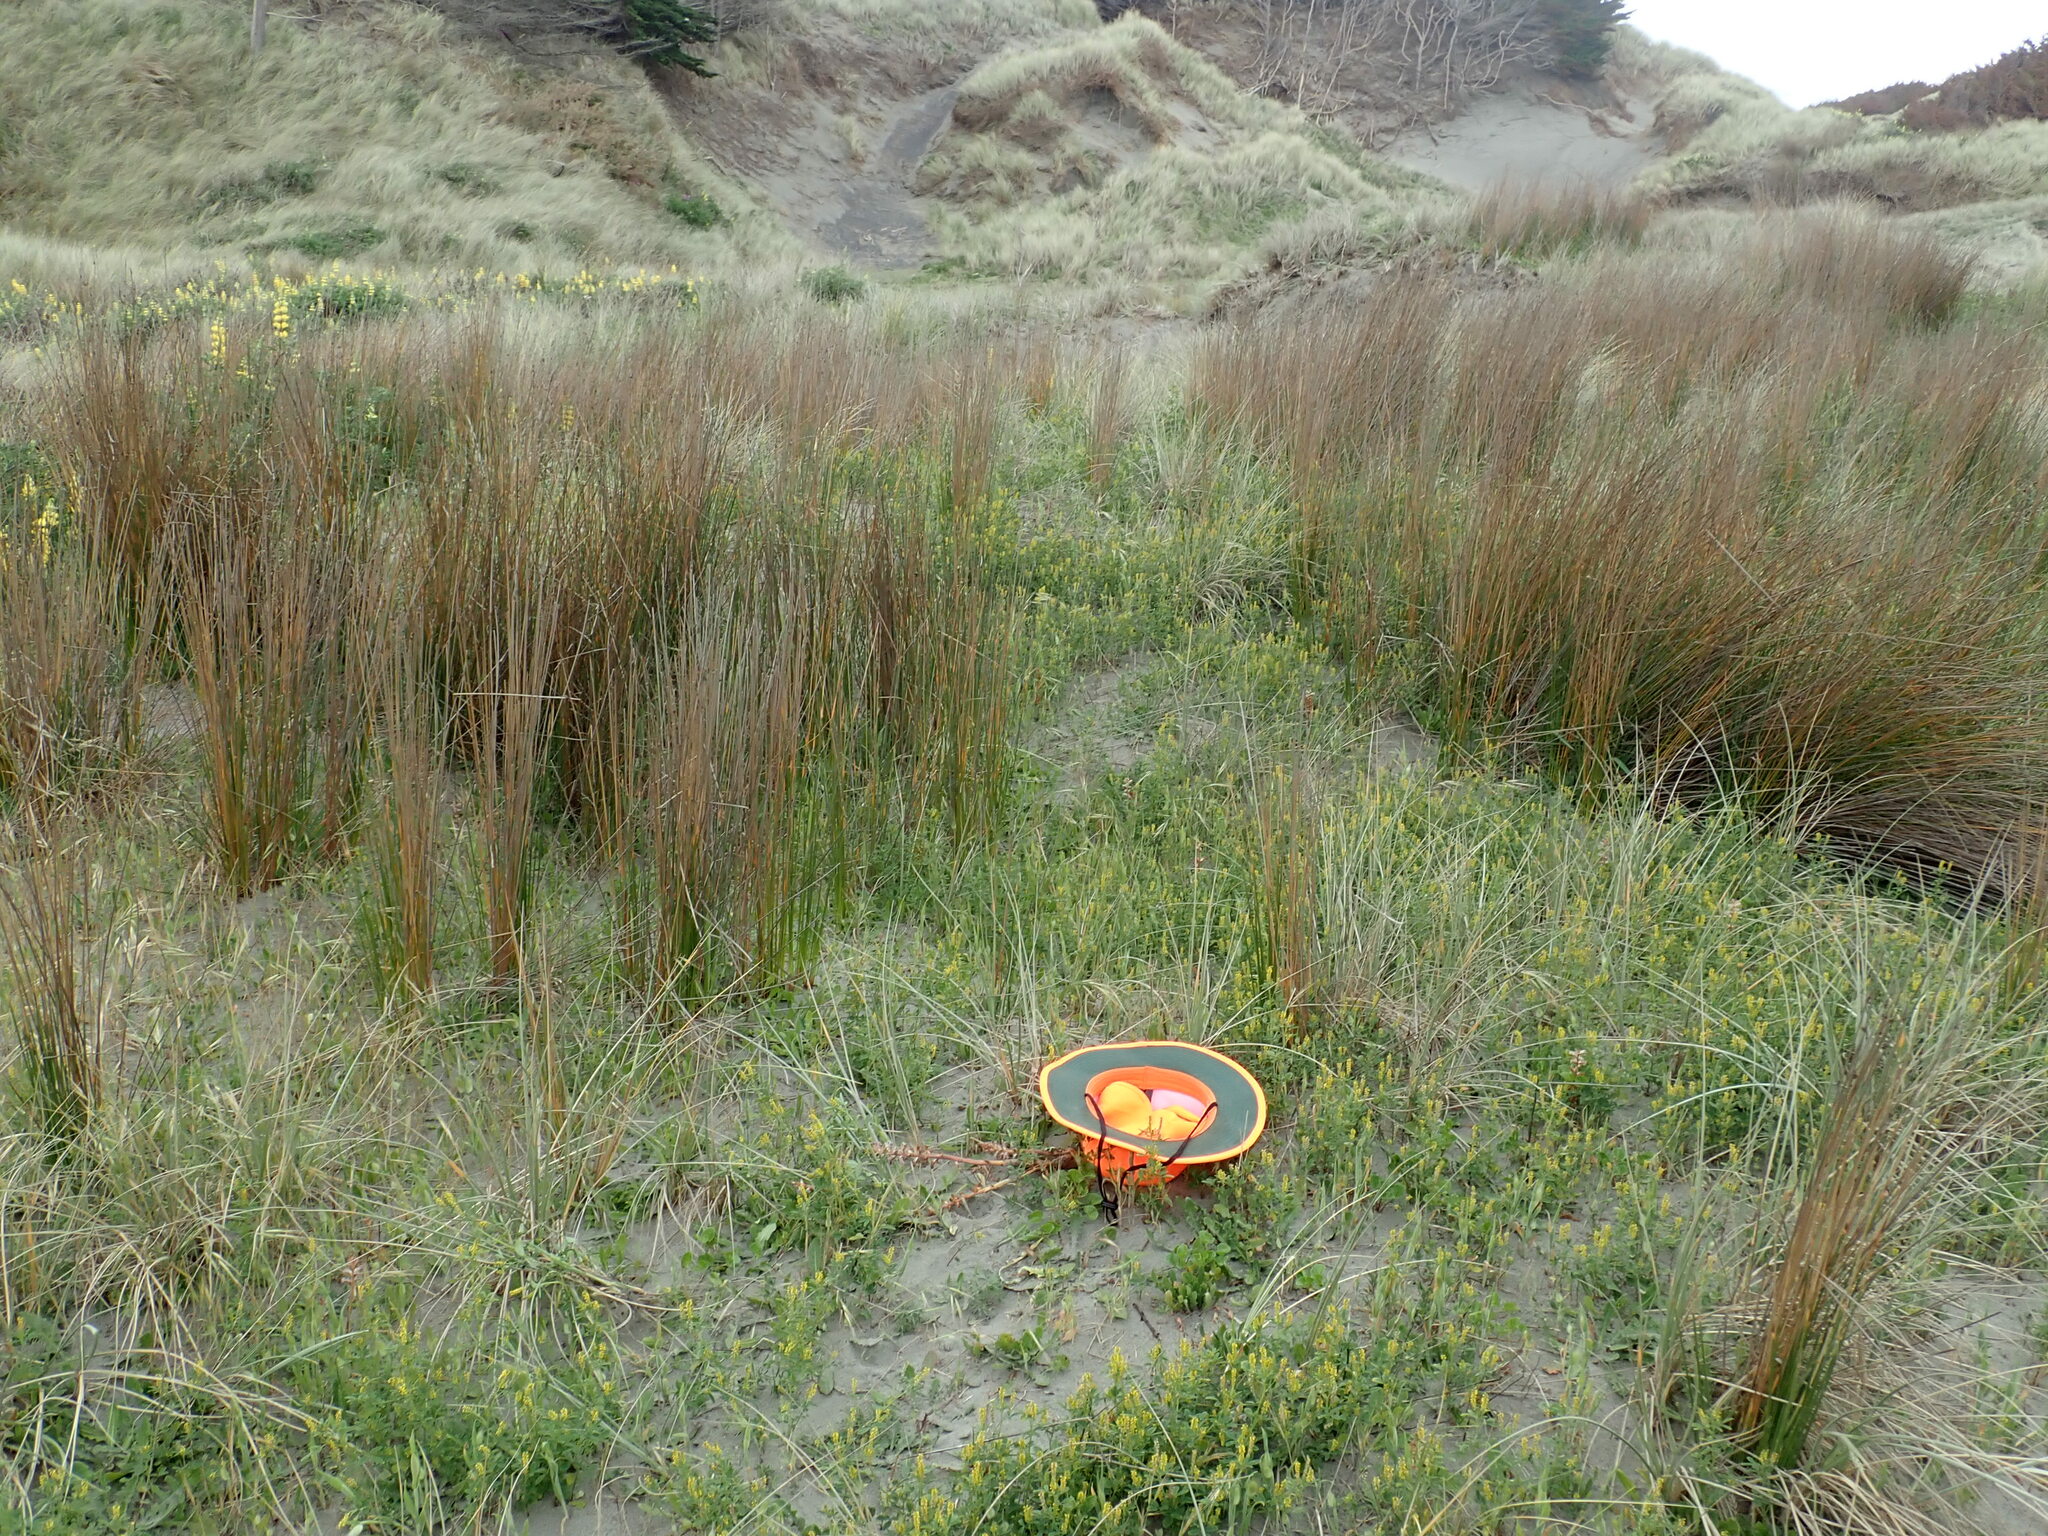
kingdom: Plantae
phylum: Tracheophyta
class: Magnoliopsida
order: Lamiales
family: Orobanchaceae
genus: Orobanche
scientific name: Orobanche minor
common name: Common broomrape
